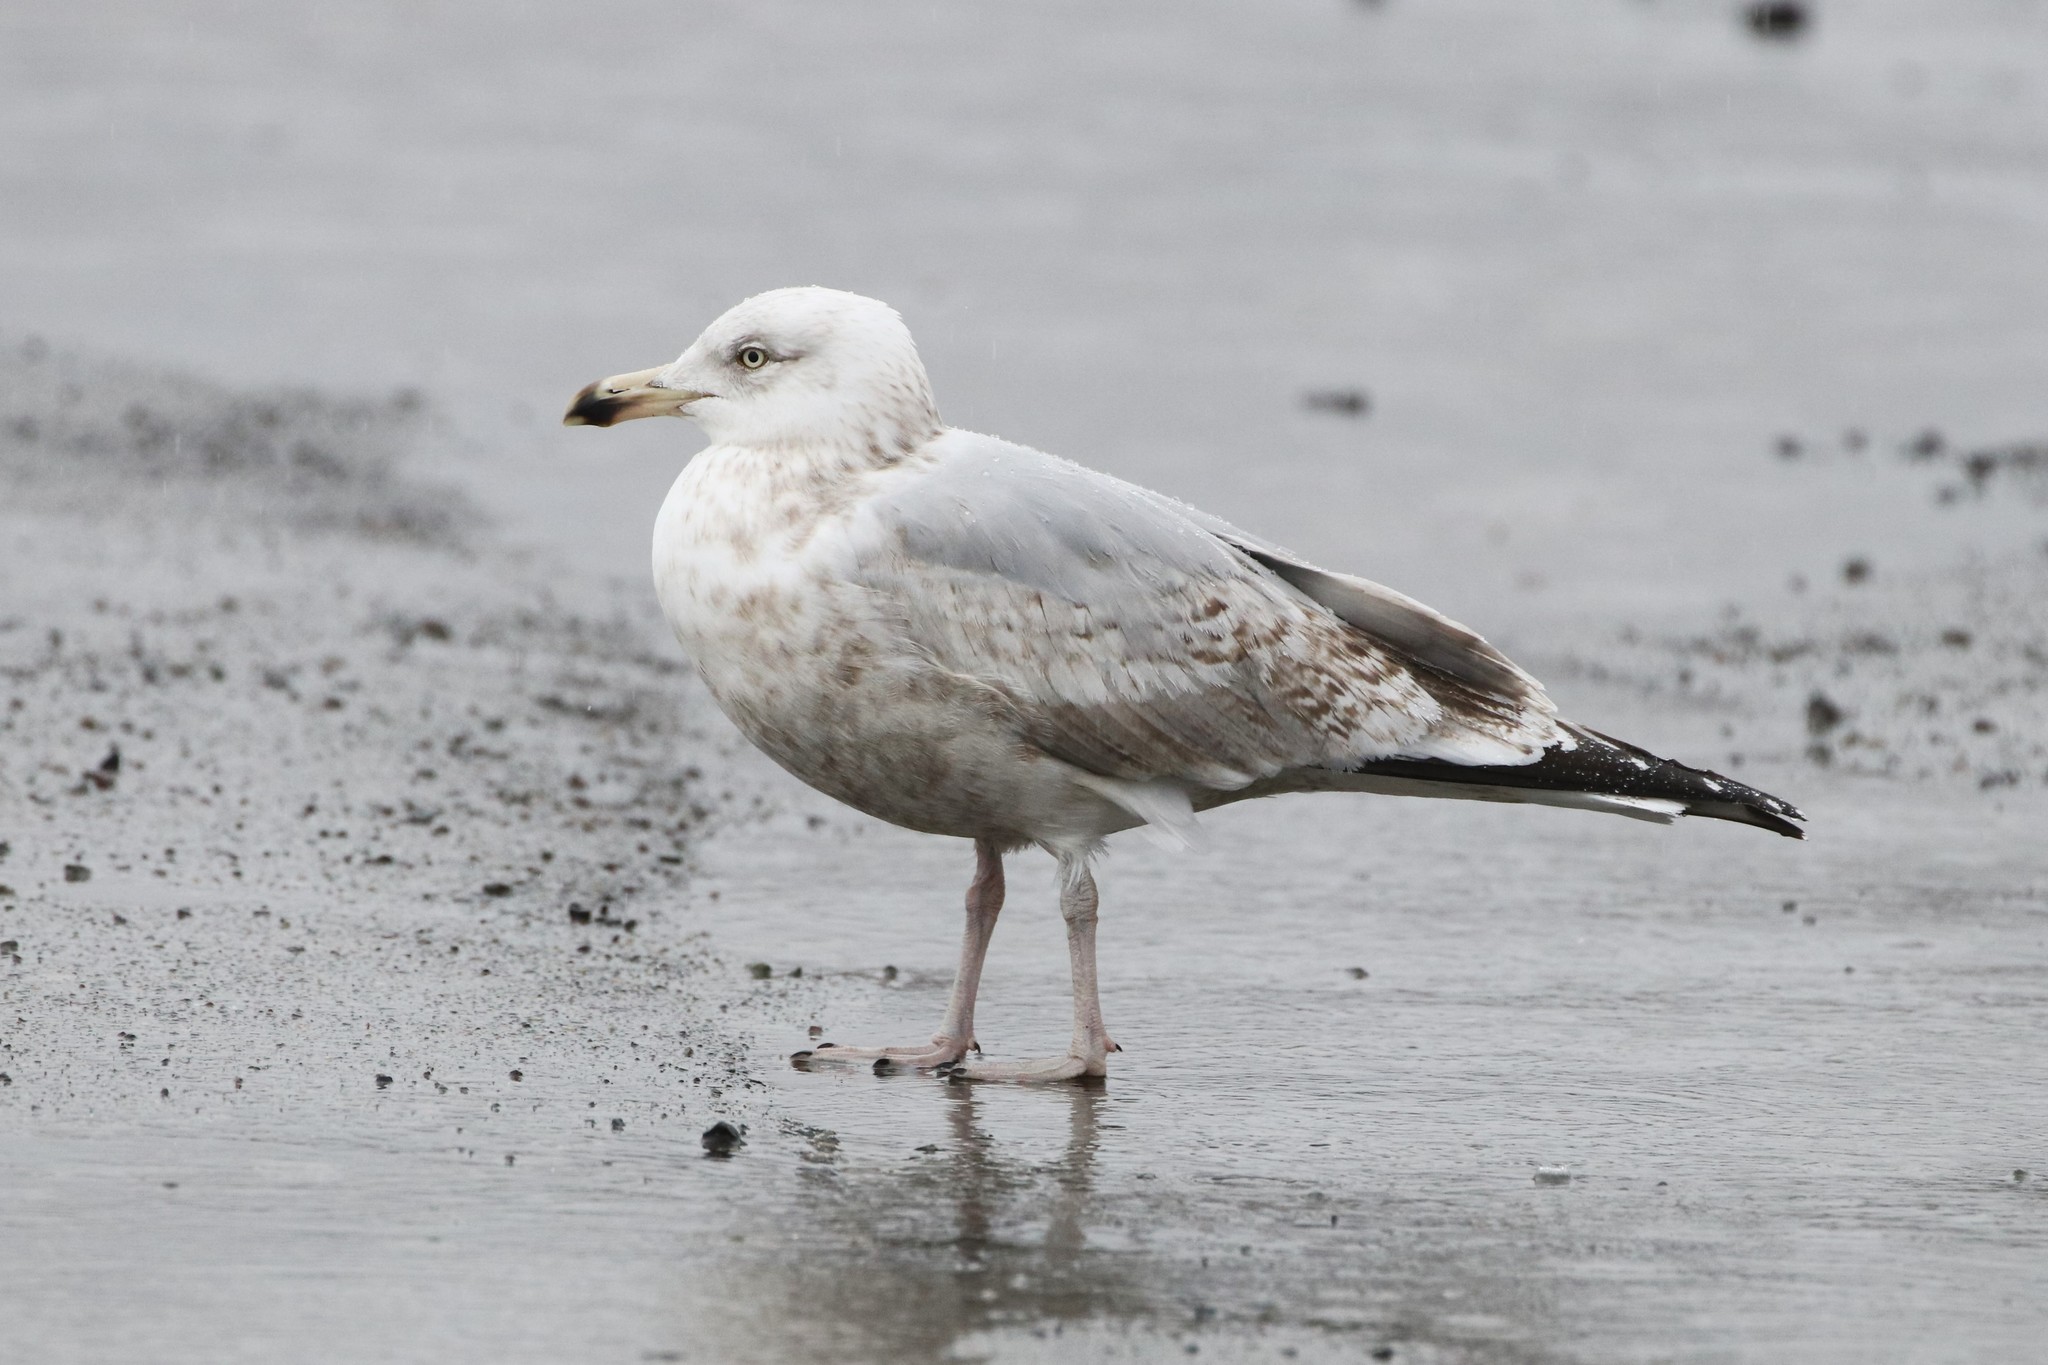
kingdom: Animalia
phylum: Chordata
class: Aves
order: Charadriiformes
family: Laridae
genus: Larus
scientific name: Larus argentatus
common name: Herring gull
